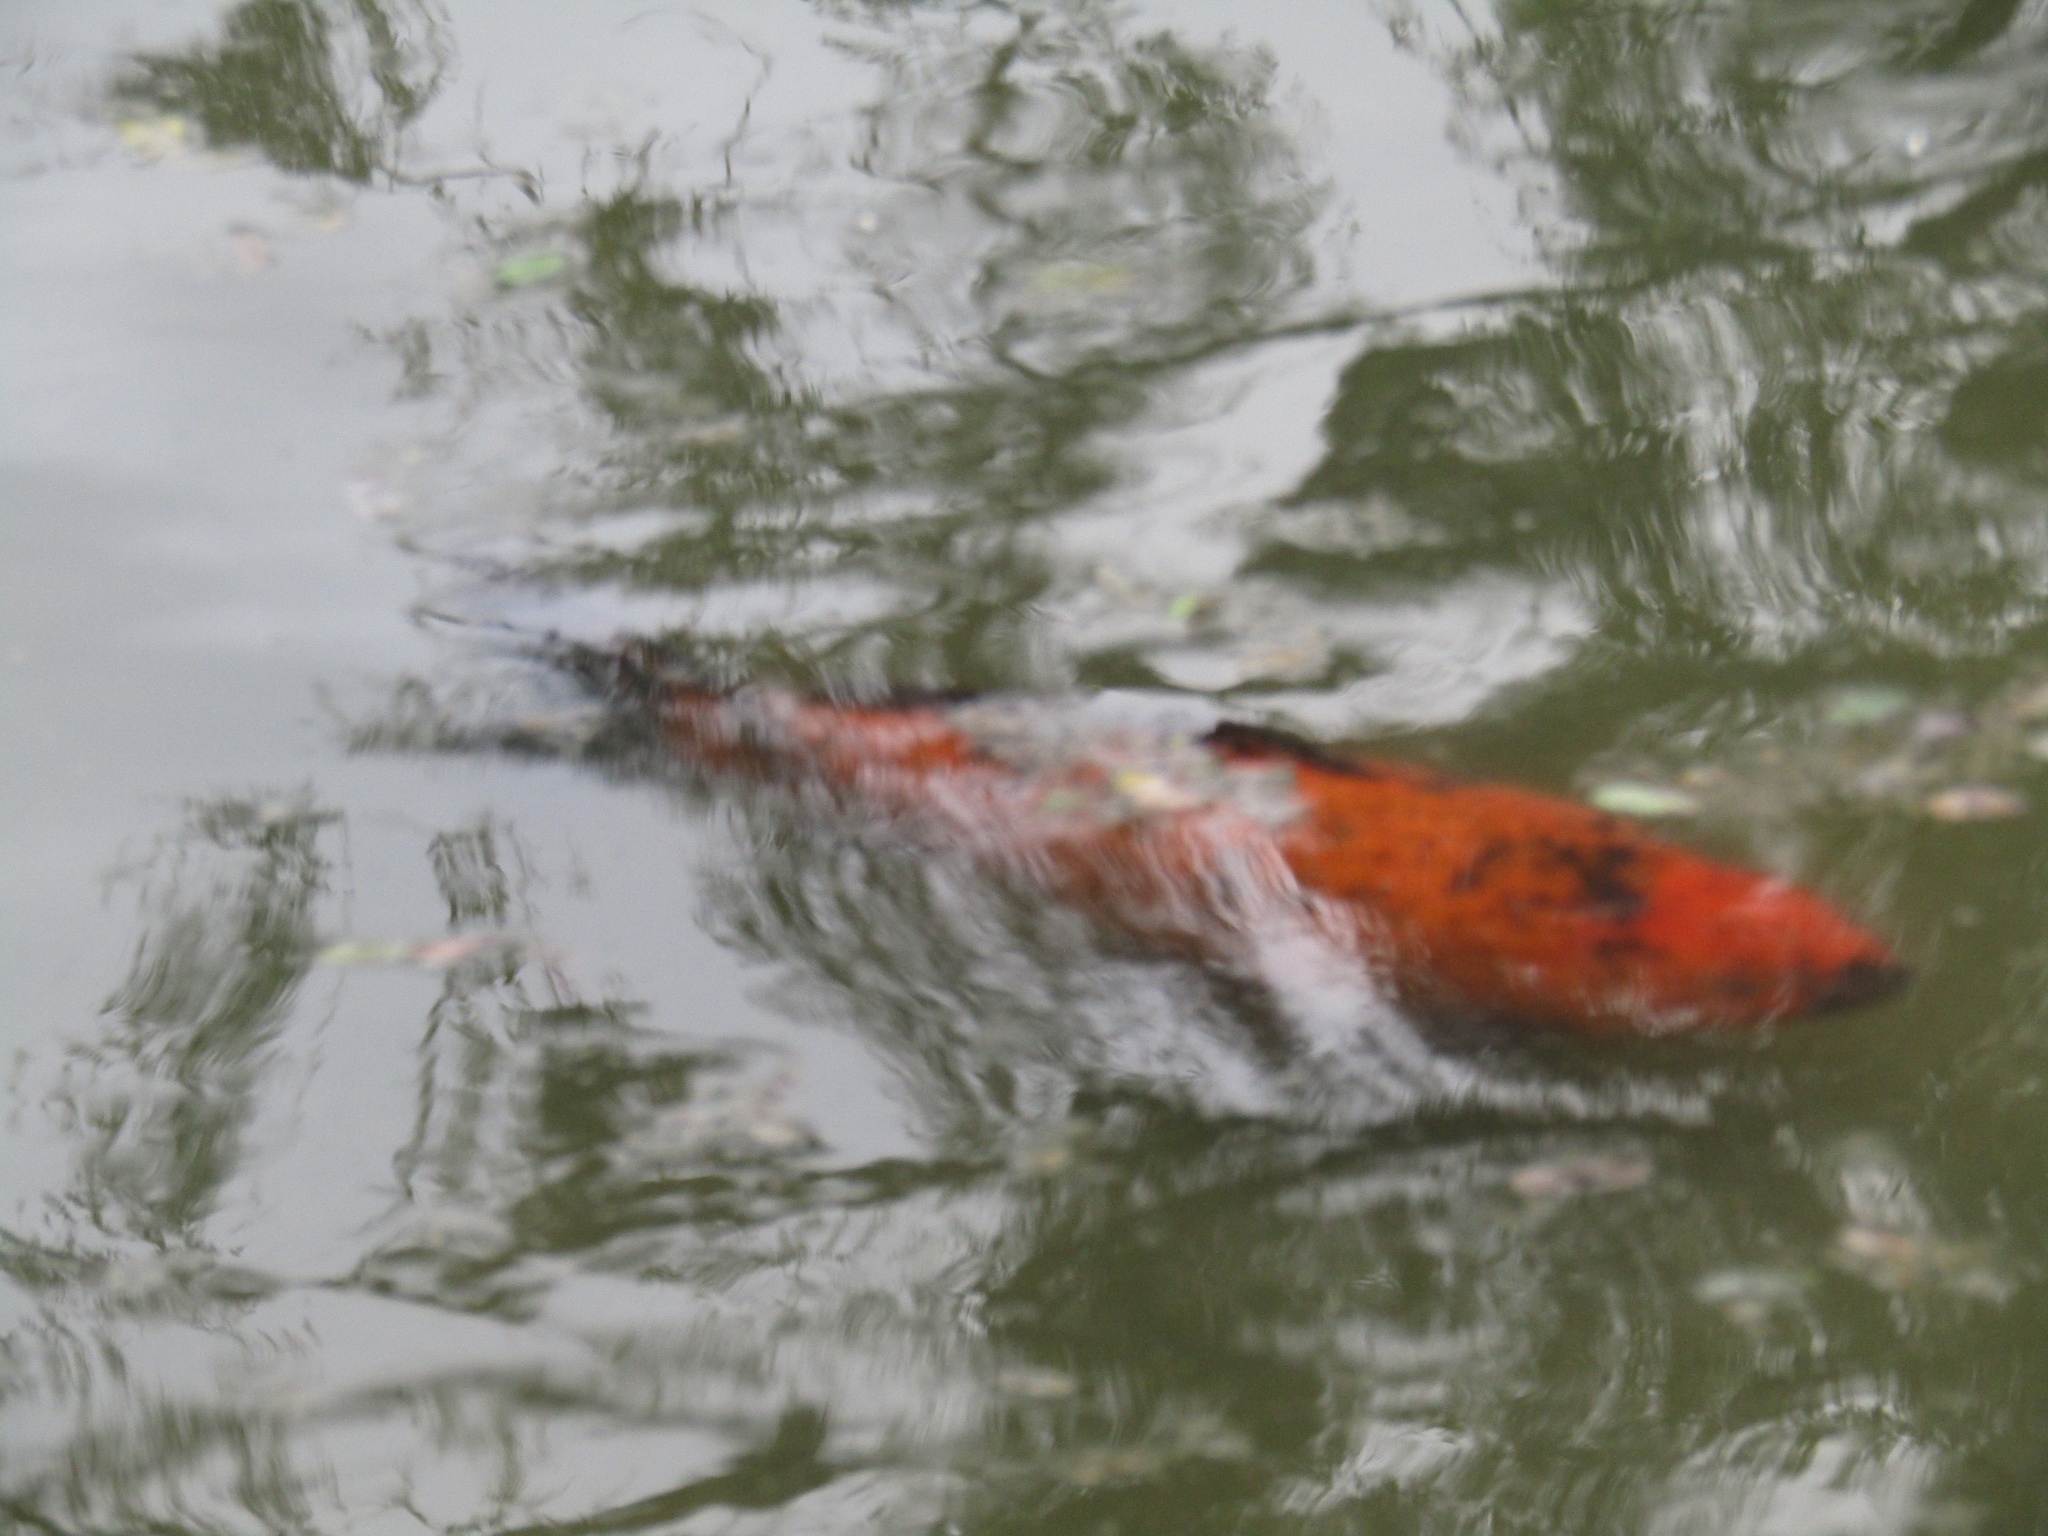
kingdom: Animalia
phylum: Chordata
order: Cypriniformes
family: Cyprinidae
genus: Cyprinus
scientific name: Cyprinus rubrofuscus
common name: Koi
